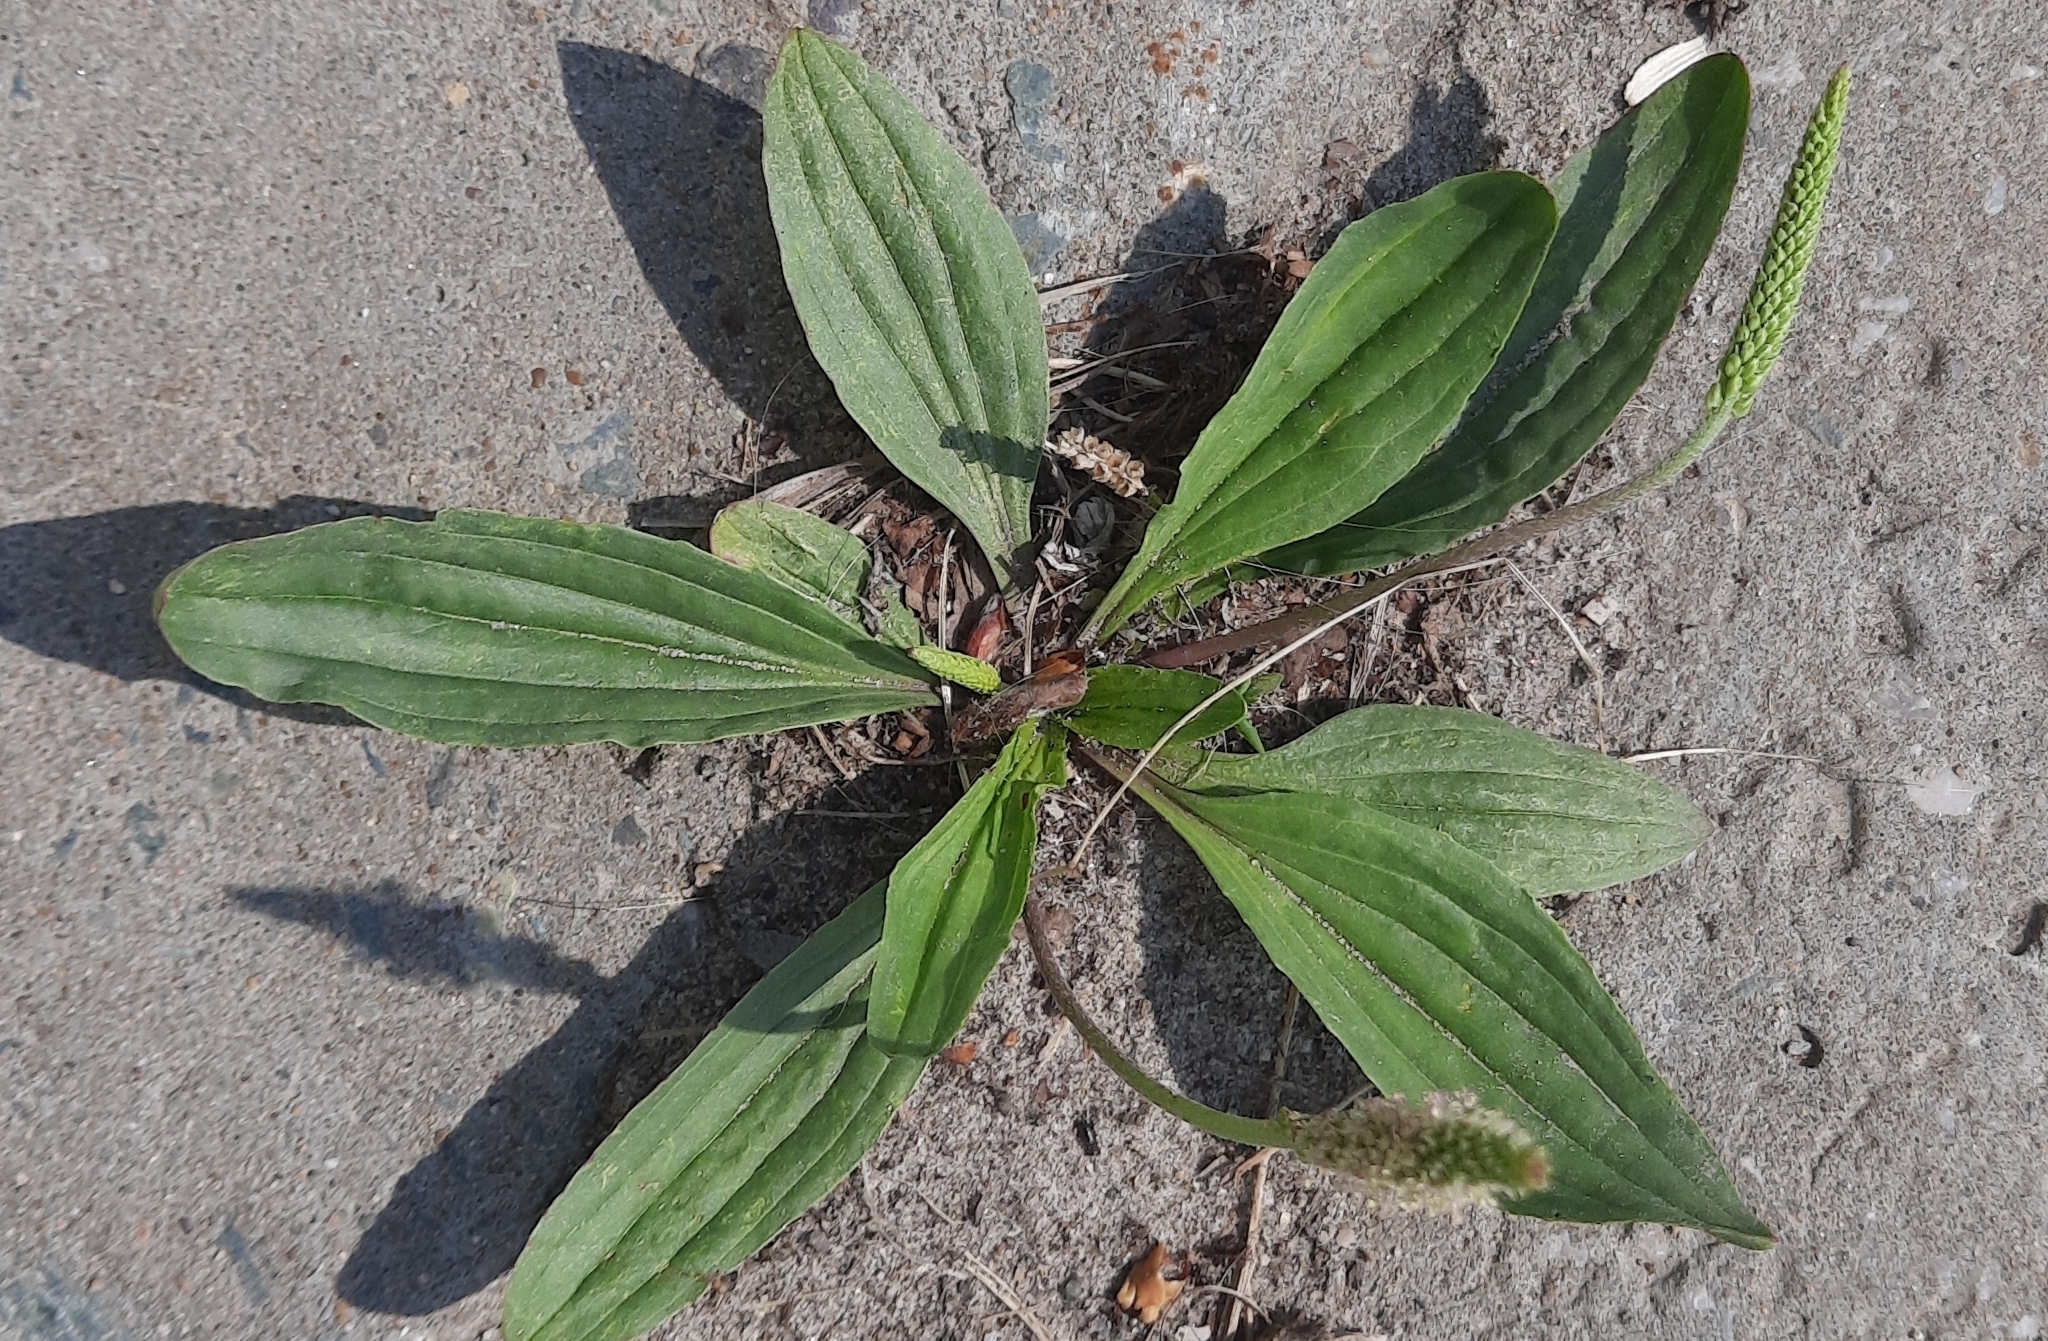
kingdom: Plantae
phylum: Tracheophyta
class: Magnoliopsida
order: Lamiales
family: Plantaginaceae
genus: Plantago
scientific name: Plantago urvillei
